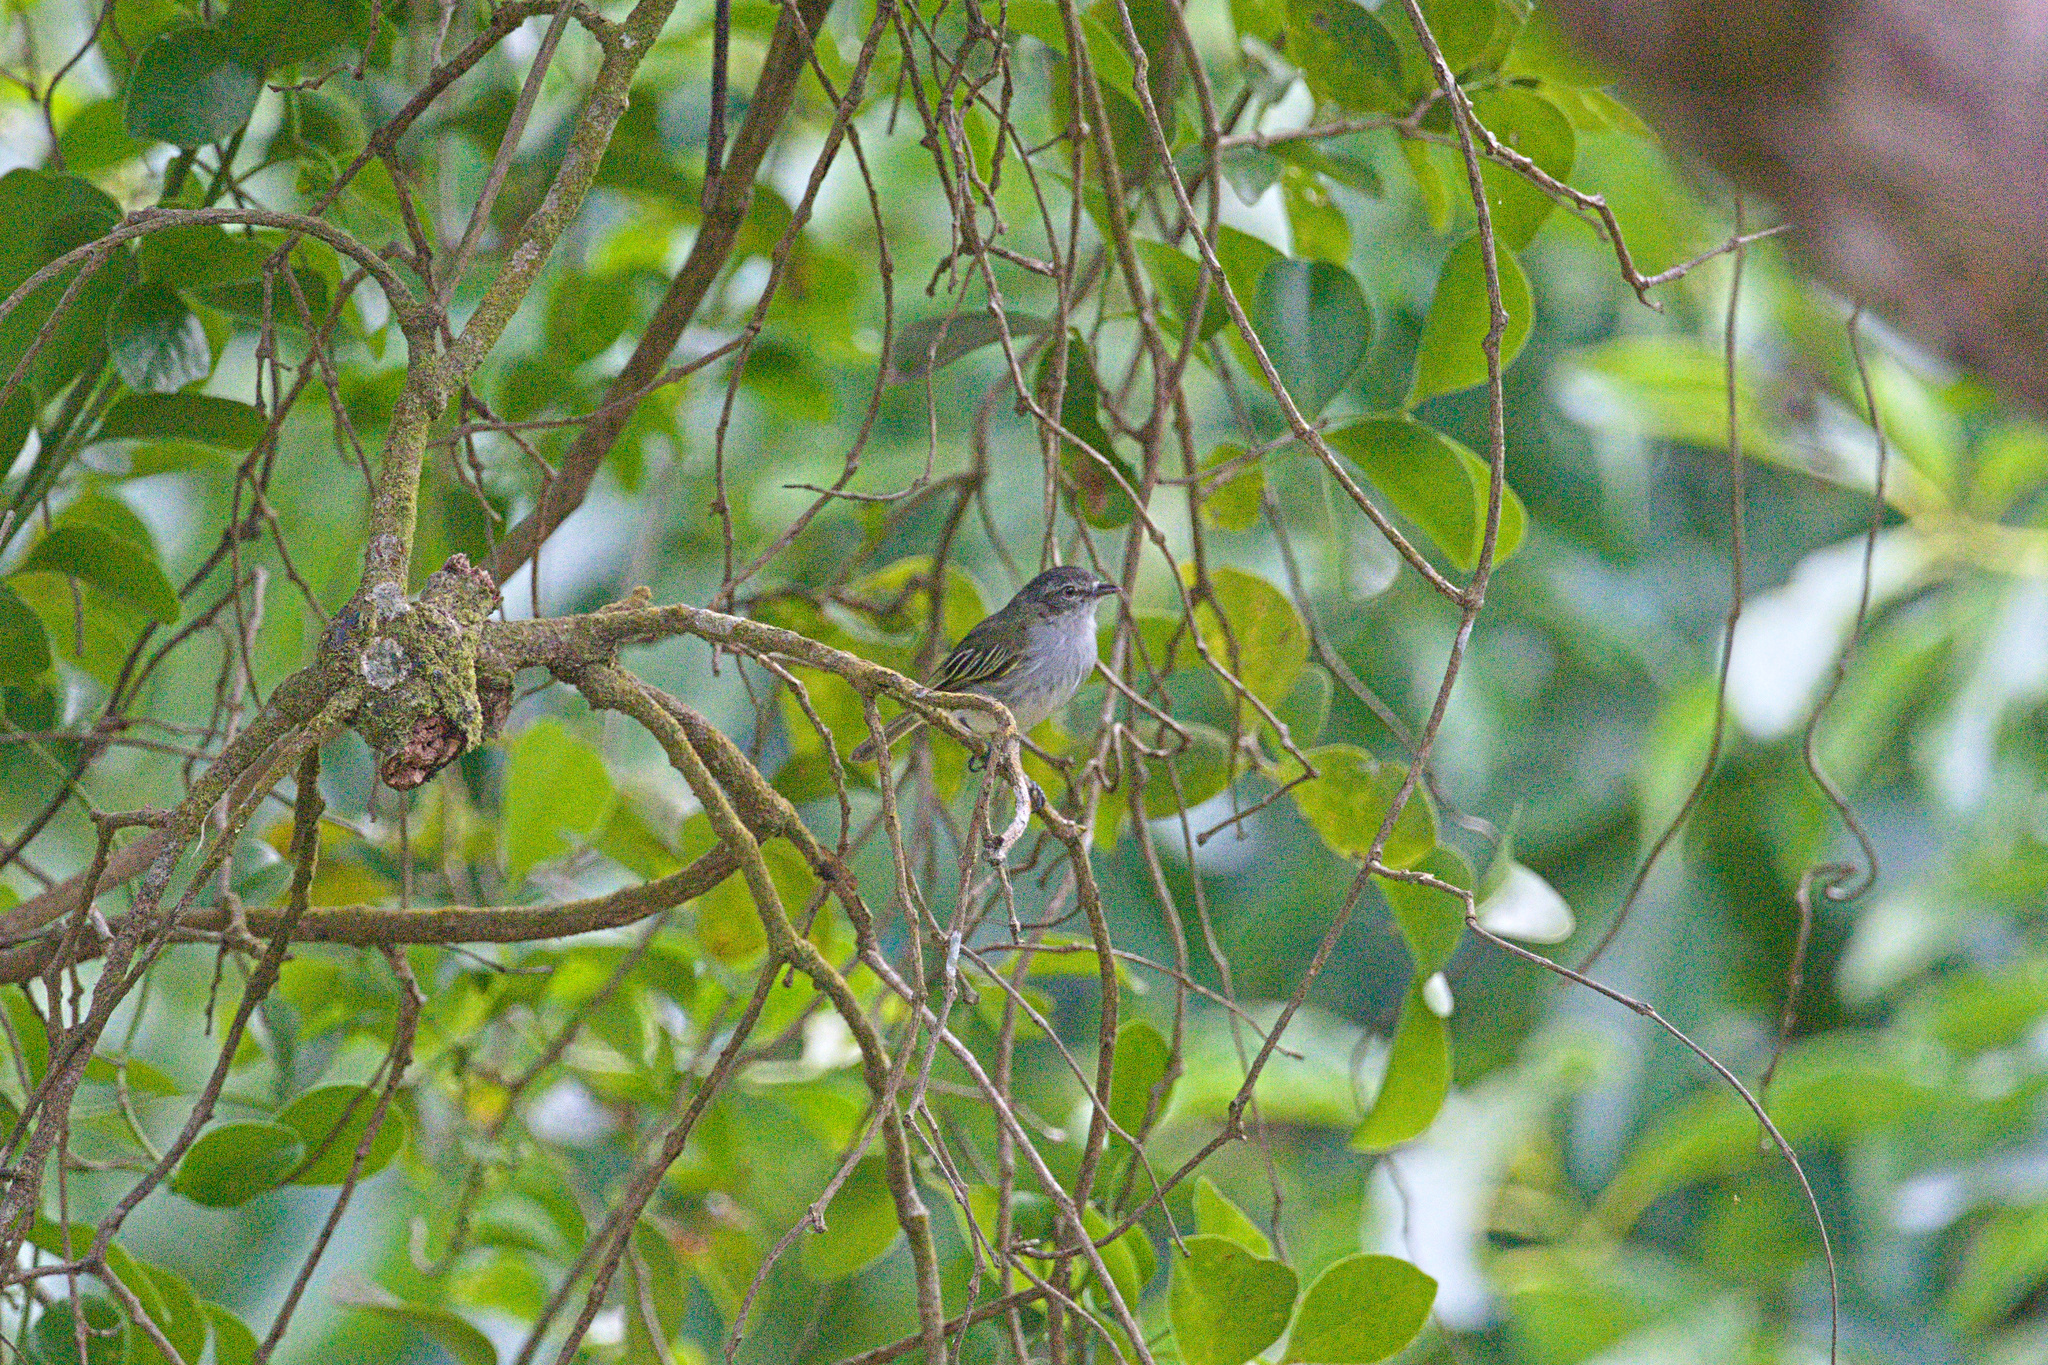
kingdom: Animalia
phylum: Chordata
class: Aves
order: Passeriformes
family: Tyrannidae
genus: Zimmerius
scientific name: Zimmerius vilissimus
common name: Paltry tyrannulet
